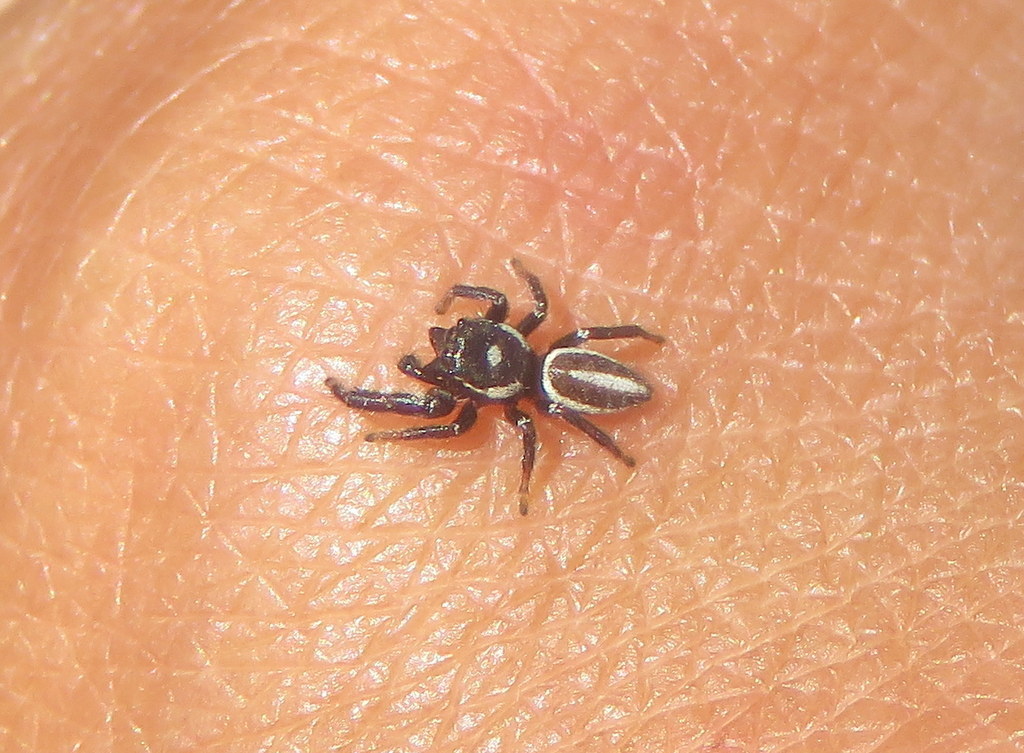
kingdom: Animalia
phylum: Arthropoda
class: Arachnida
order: Araneae
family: Salticidae
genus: Dendryphantes
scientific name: Dendryphantes mordax
